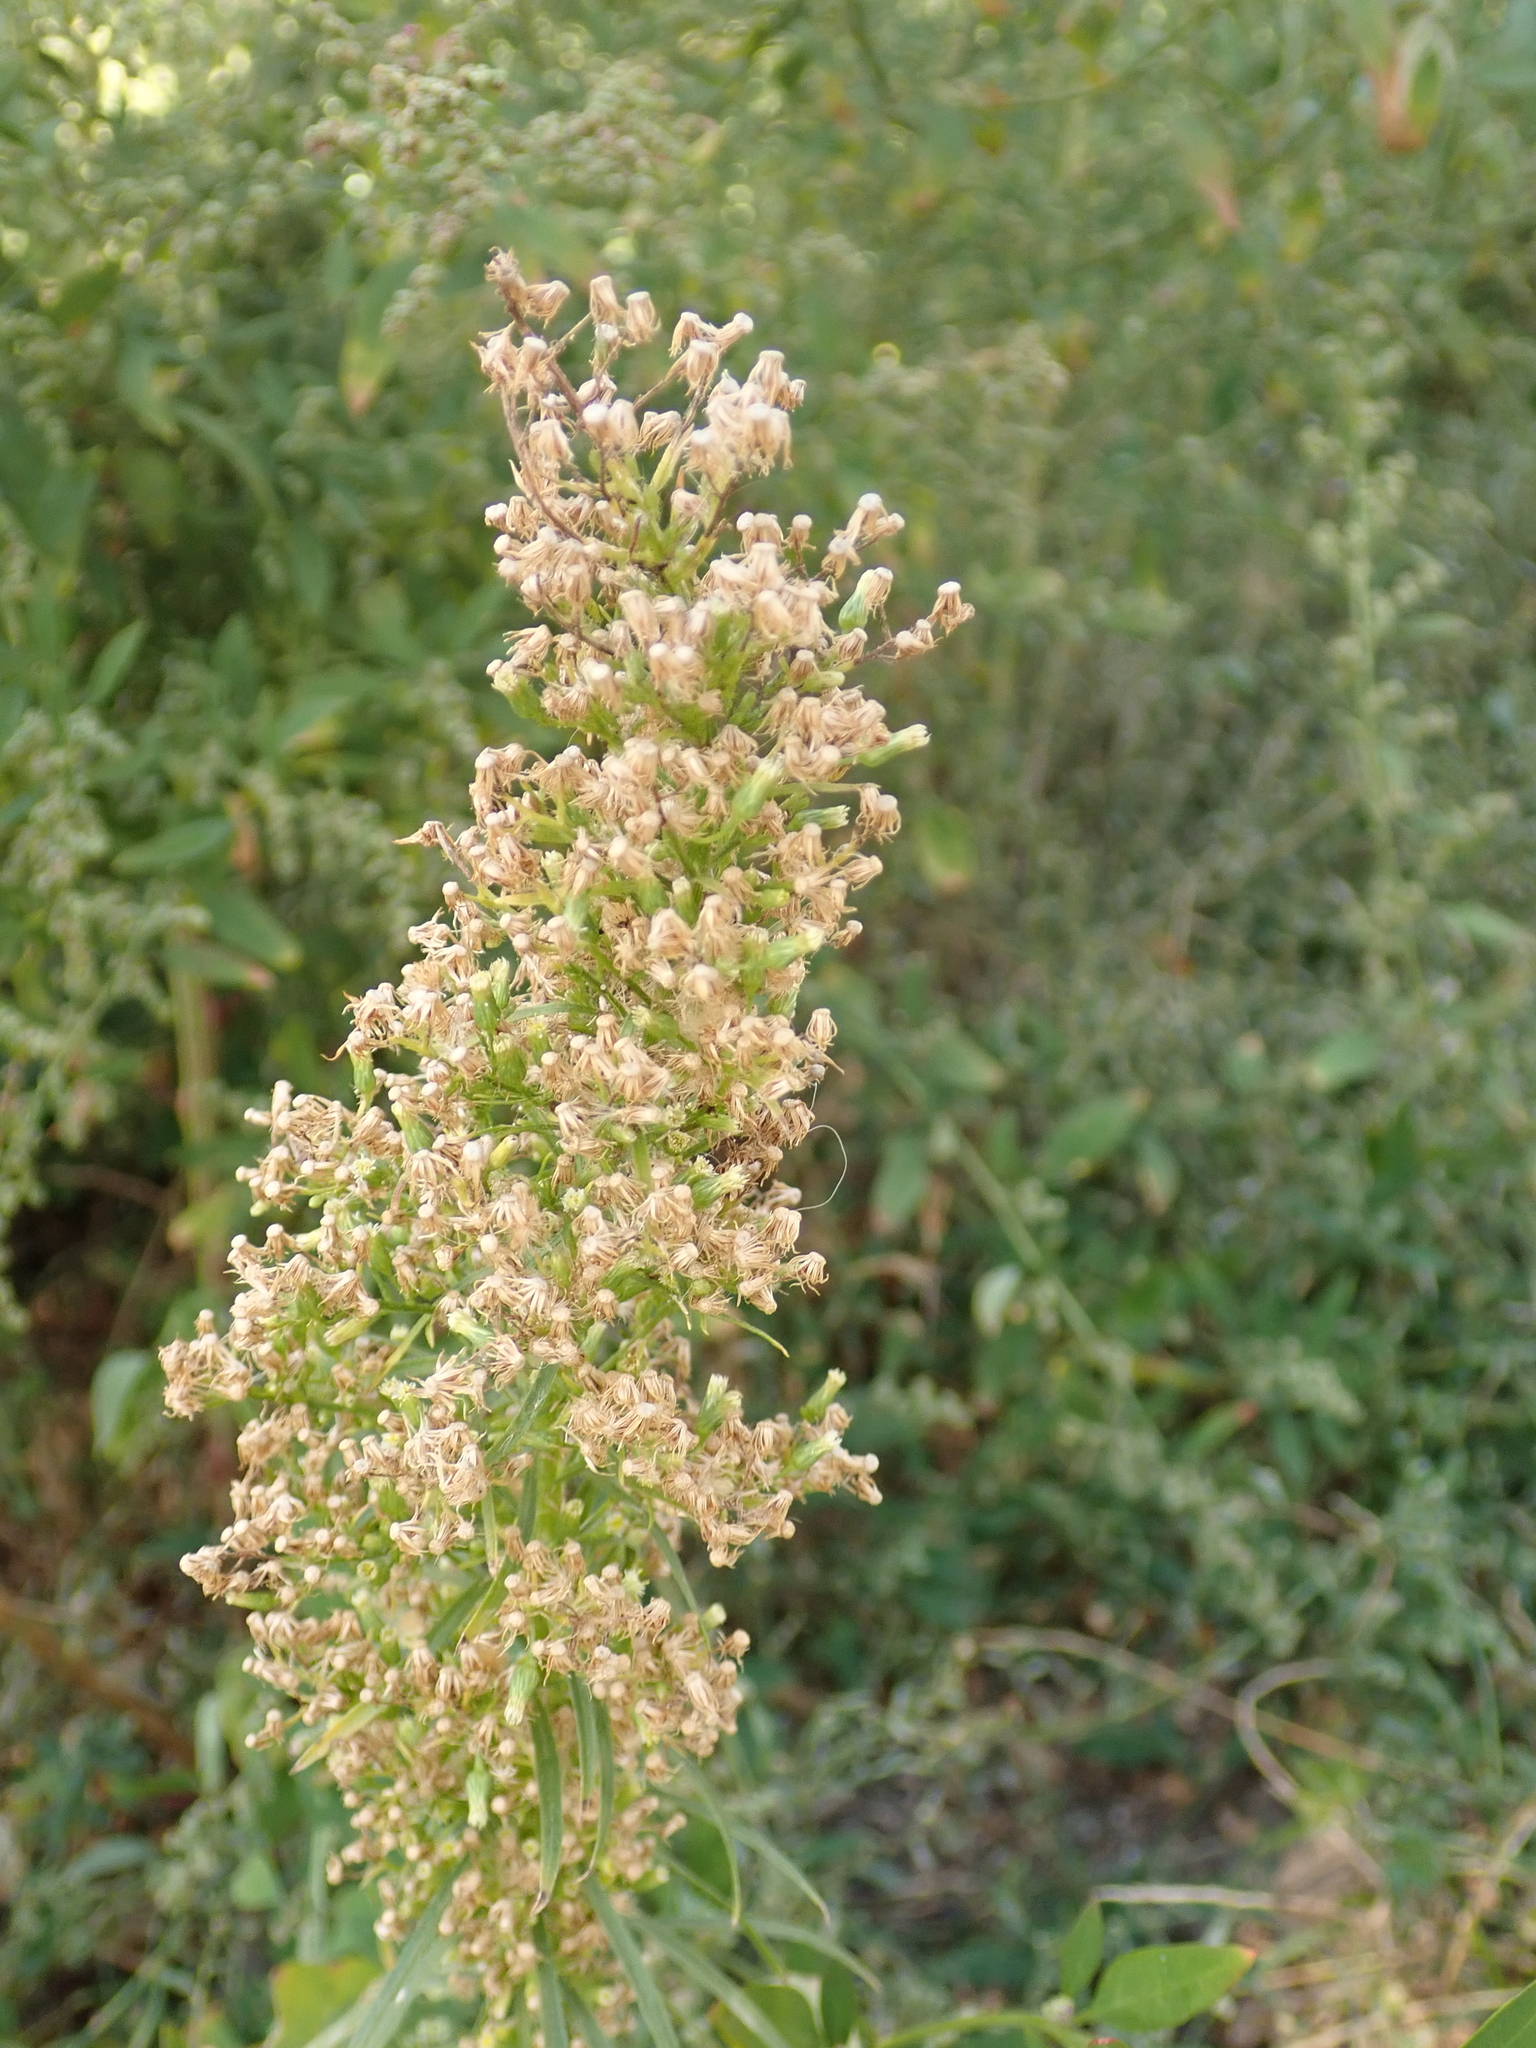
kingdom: Plantae
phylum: Tracheophyta
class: Magnoliopsida
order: Asterales
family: Asteraceae
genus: Erigeron
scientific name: Erigeron canadensis
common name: Canadian fleabane
